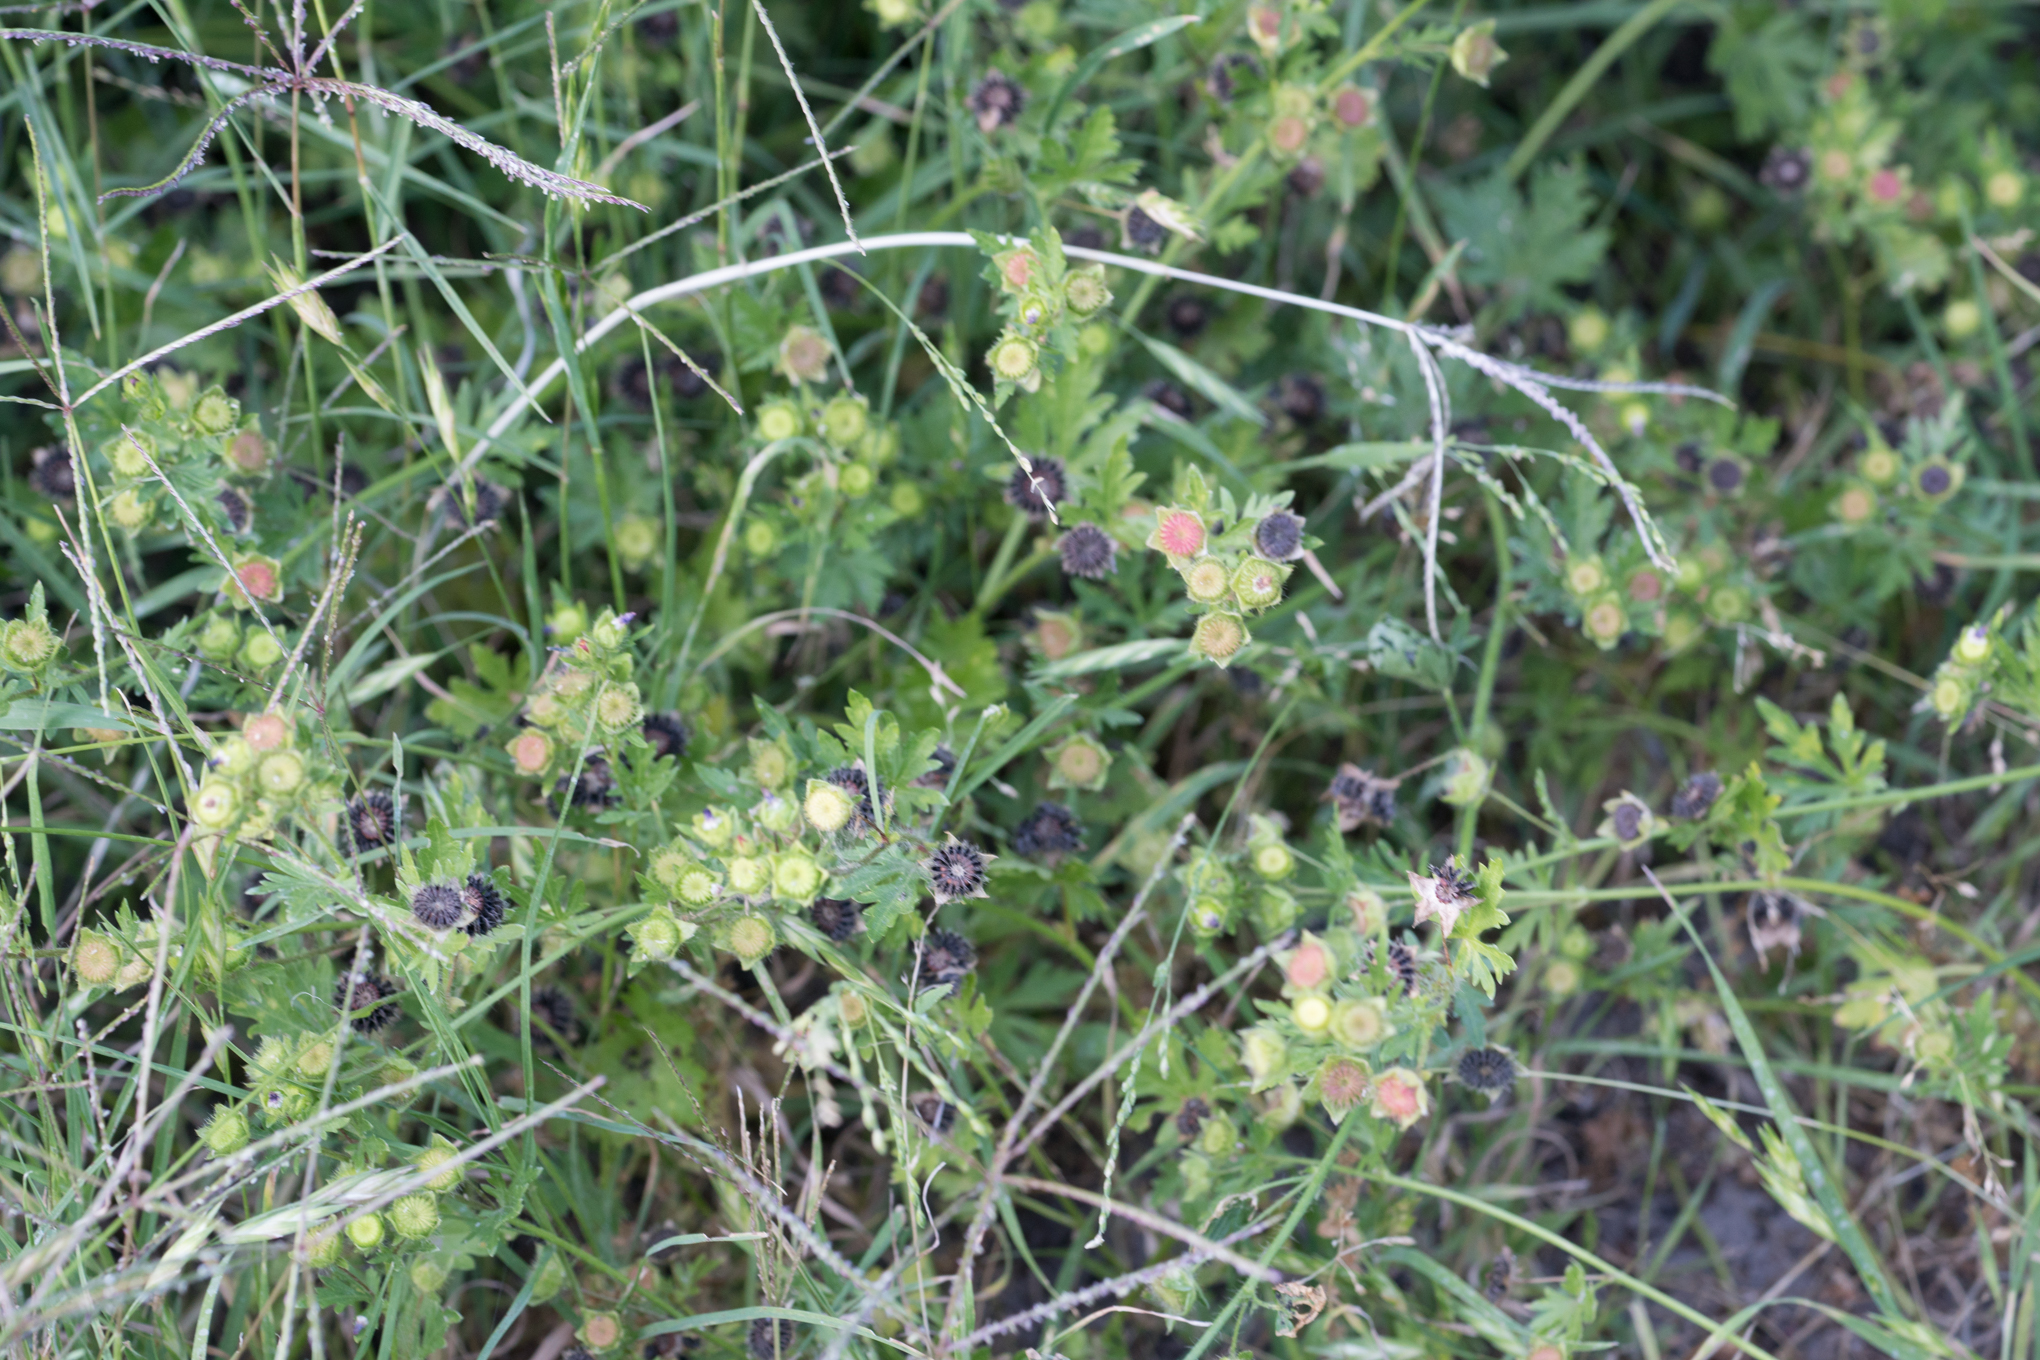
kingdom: Plantae
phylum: Tracheophyta
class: Magnoliopsida
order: Malvales
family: Malvaceae
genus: Modiola
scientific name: Modiola caroliniana
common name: Carolina bristlemallow
